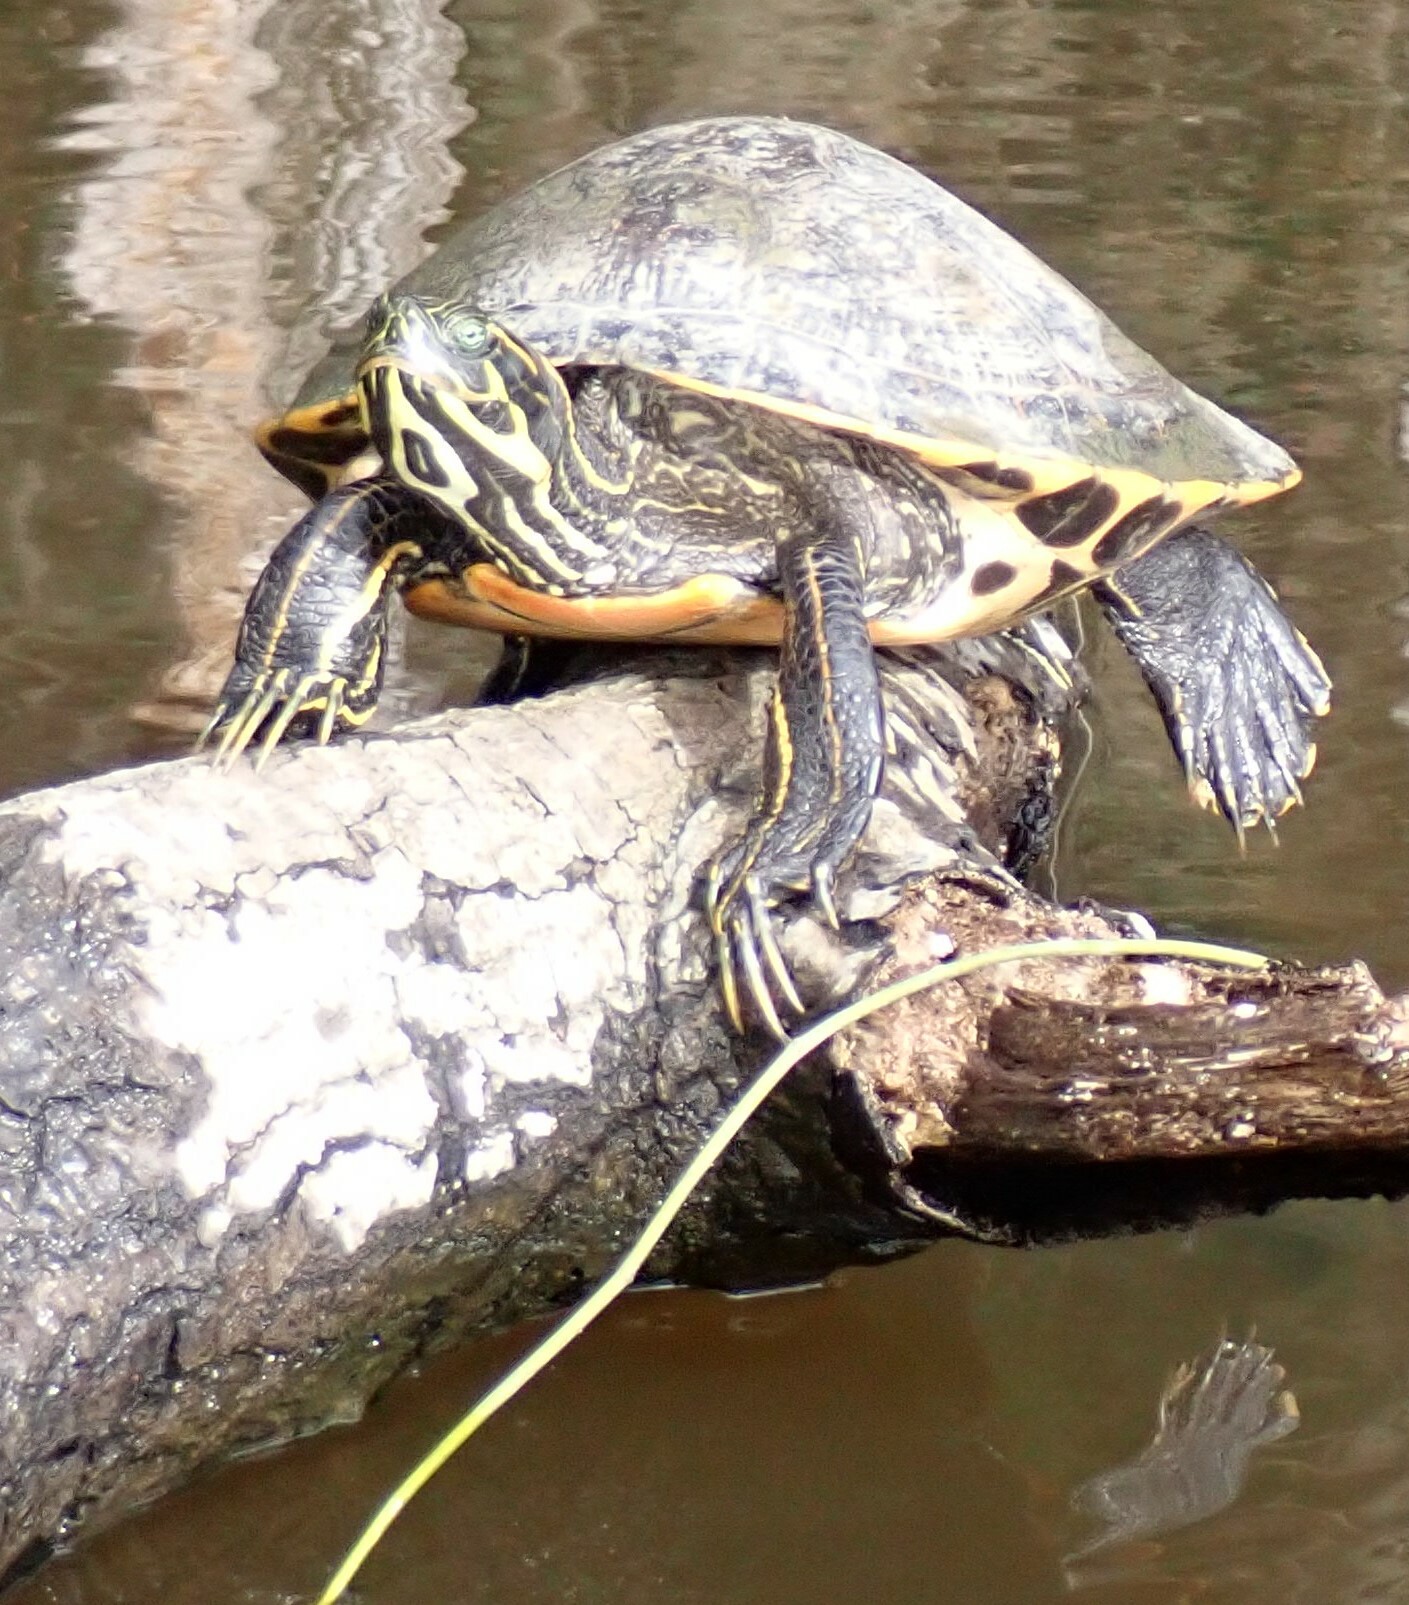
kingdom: Animalia
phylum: Chordata
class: Testudines
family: Emydidae
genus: Pseudemys
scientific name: Pseudemys concinna
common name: Eastern river cooter
